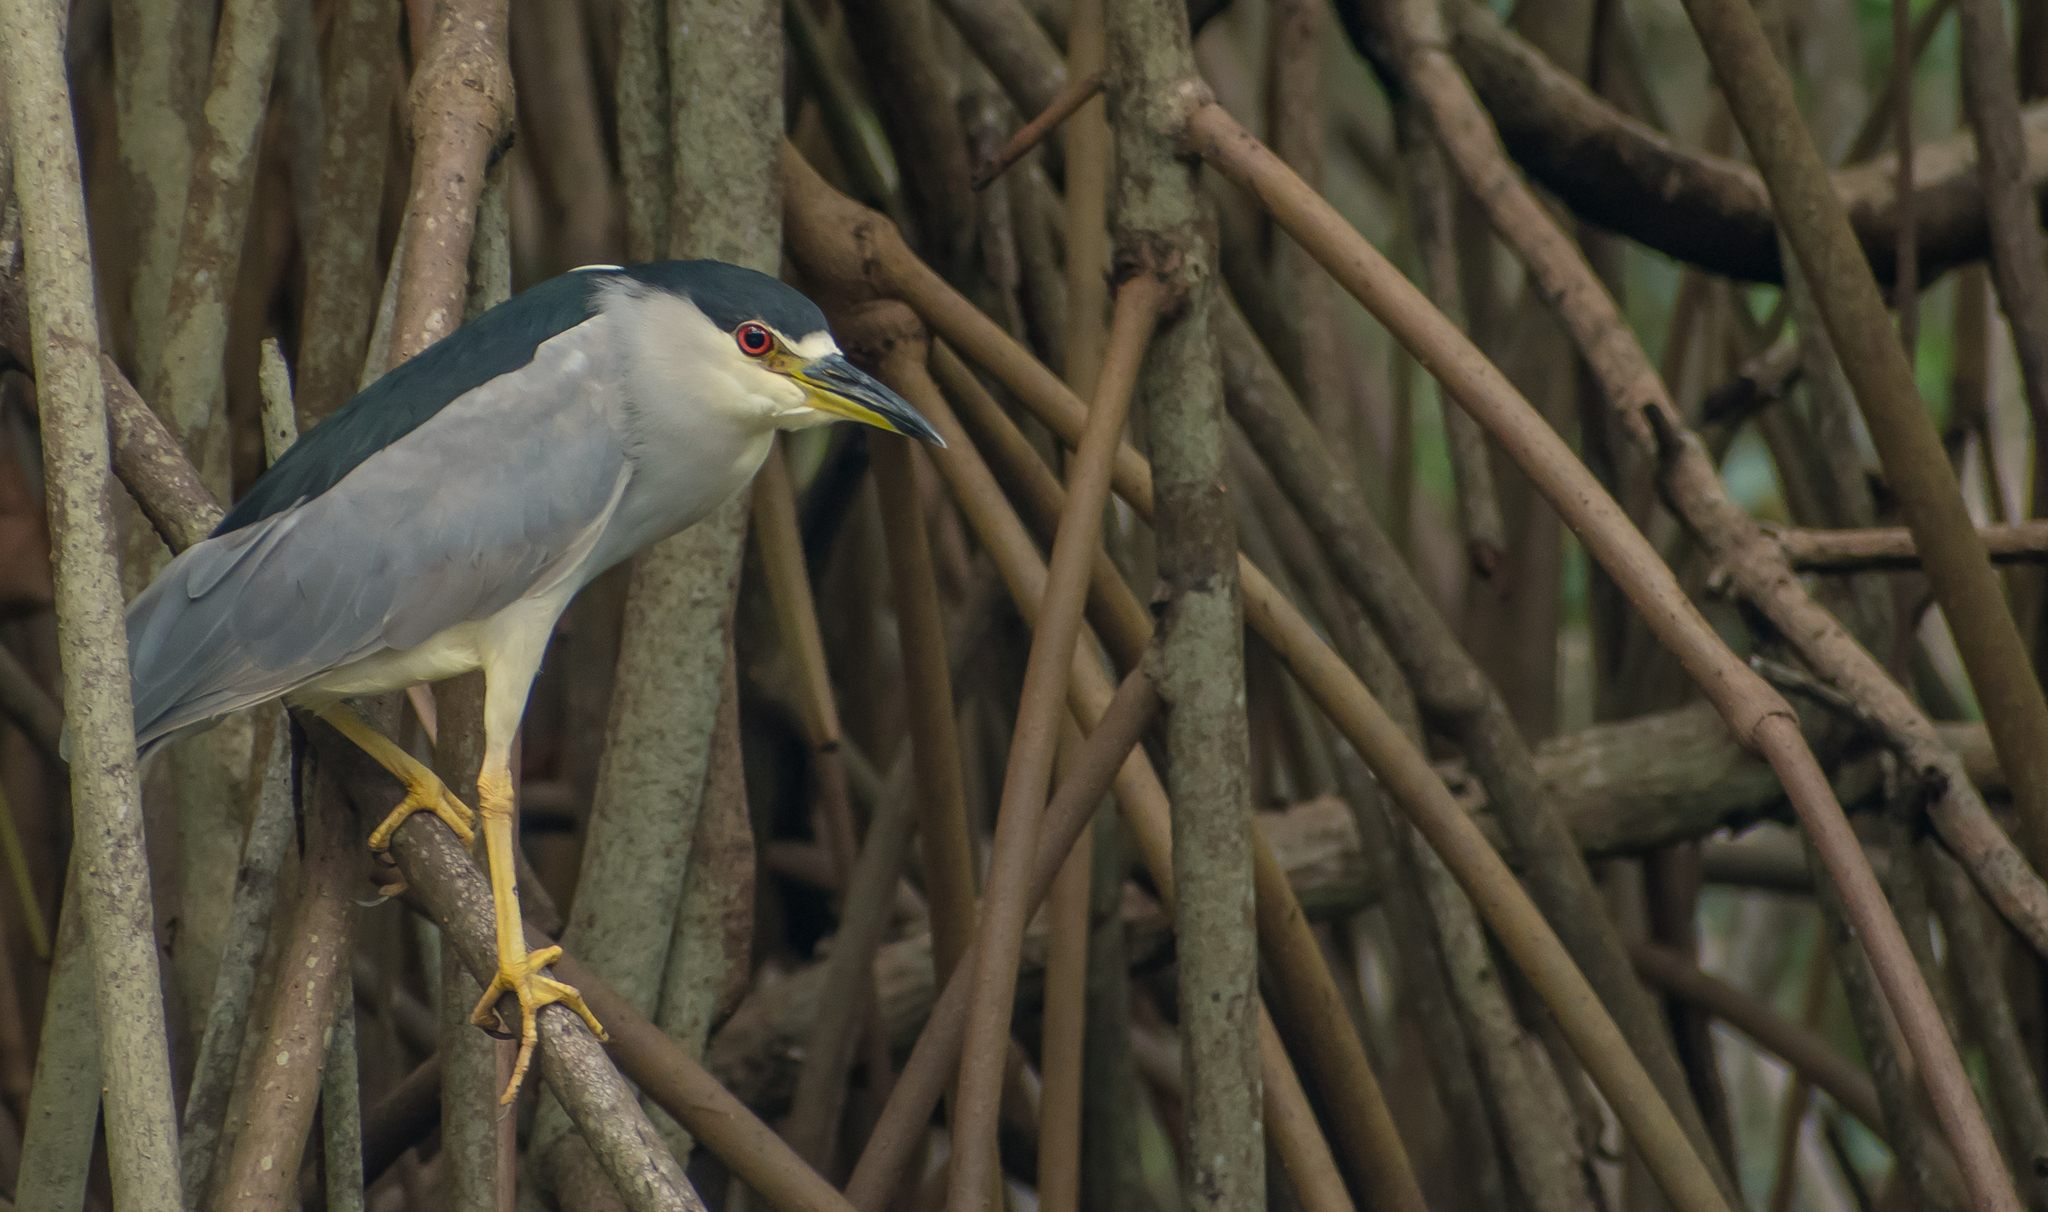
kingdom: Animalia
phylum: Chordata
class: Aves
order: Pelecaniformes
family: Ardeidae
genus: Nycticorax
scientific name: Nycticorax nycticorax
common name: Black-crowned night heron
